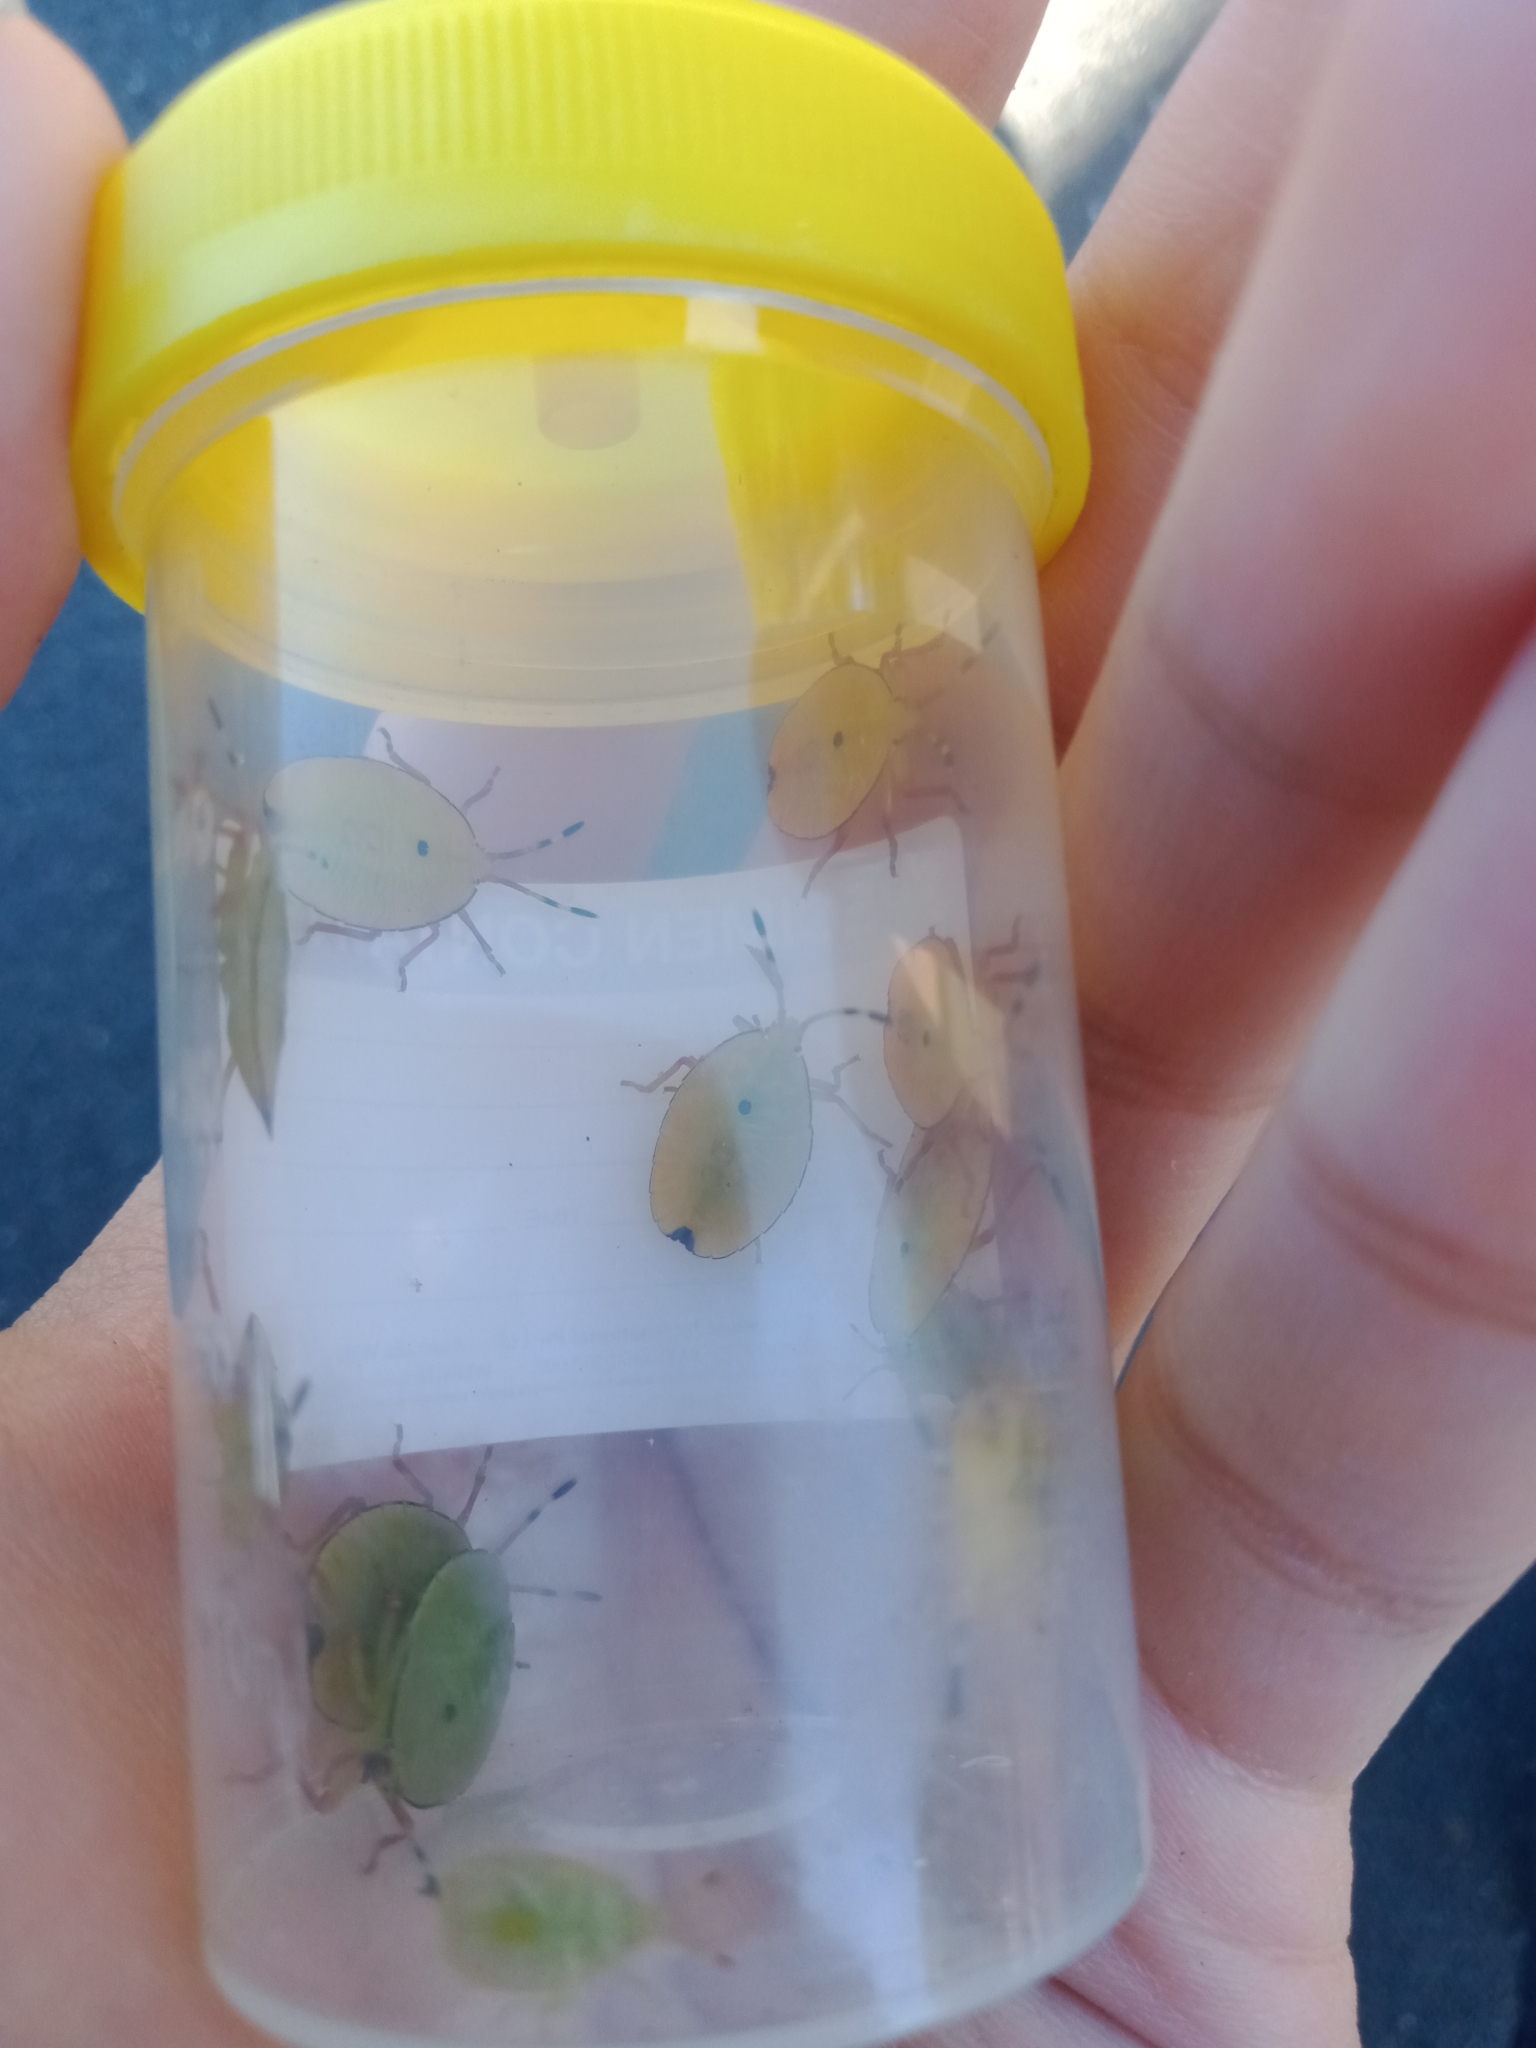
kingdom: Animalia
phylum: Arthropoda
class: Insecta
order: Hemiptera
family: Tessaratomidae
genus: Musgraveia
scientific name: Musgraveia sulciventris
